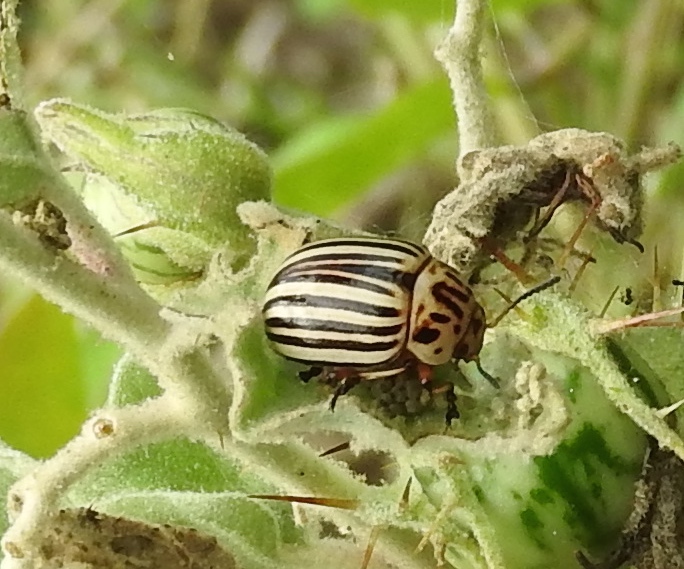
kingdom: Animalia
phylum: Arthropoda
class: Insecta
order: Coleoptera
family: Chrysomelidae
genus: Leptinotarsa
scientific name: Leptinotarsa decemlineata
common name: Colorado potato beetle
